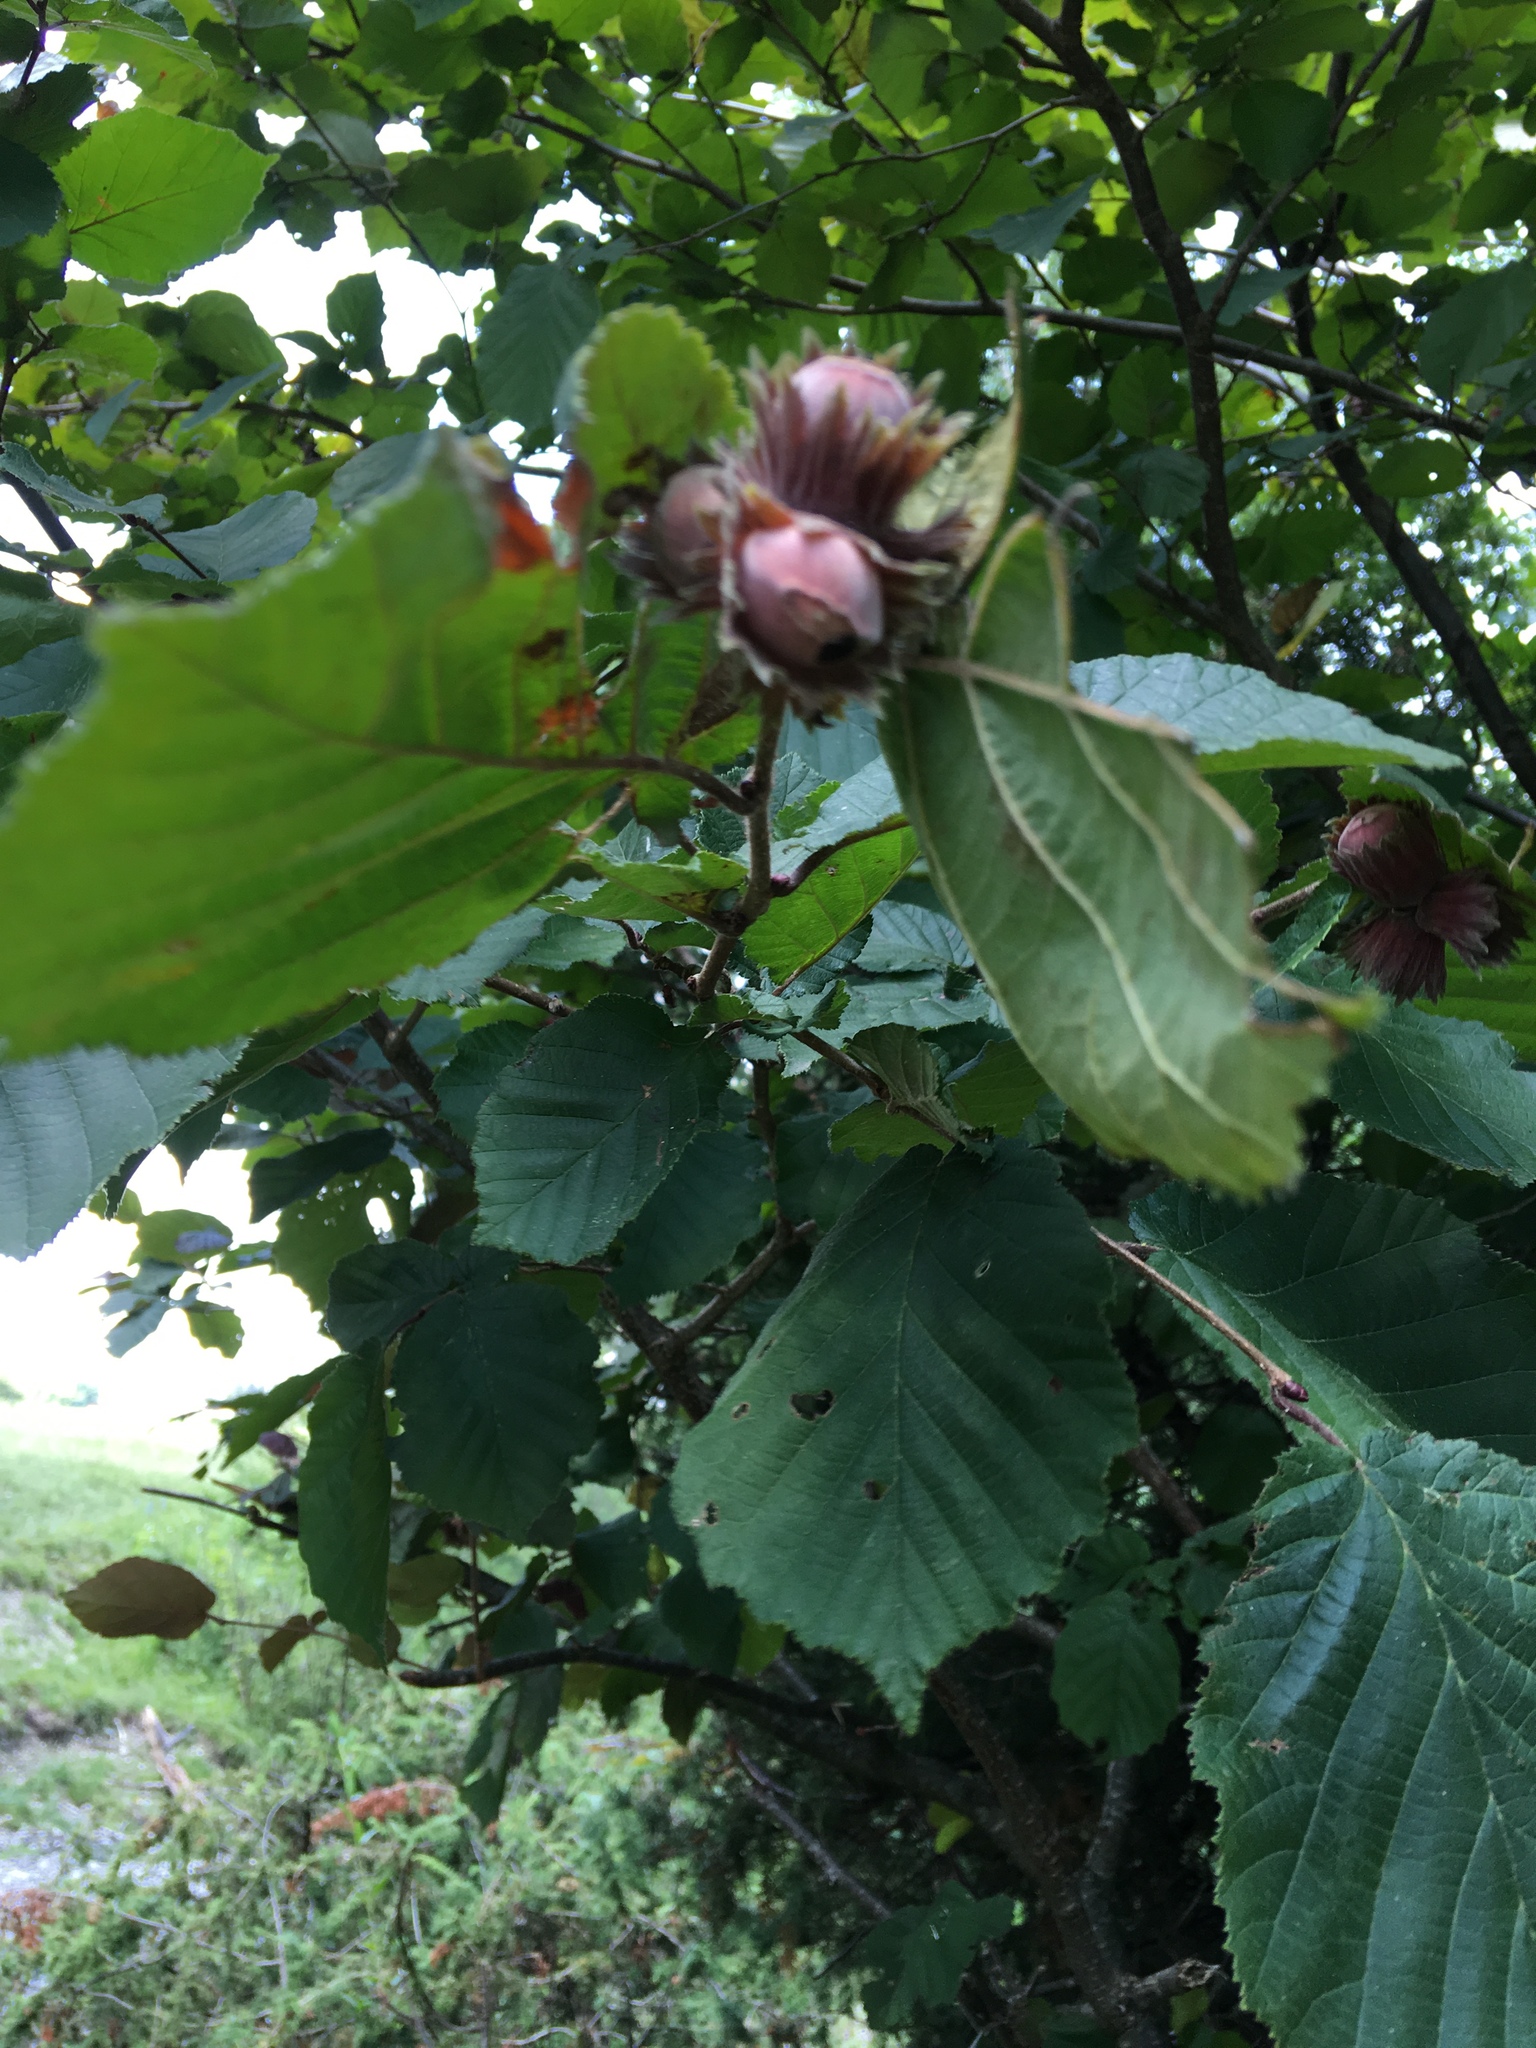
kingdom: Plantae
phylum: Tracheophyta
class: Magnoliopsida
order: Fagales
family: Betulaceae
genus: Corylus
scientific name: Corylus avellana
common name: European hazel
